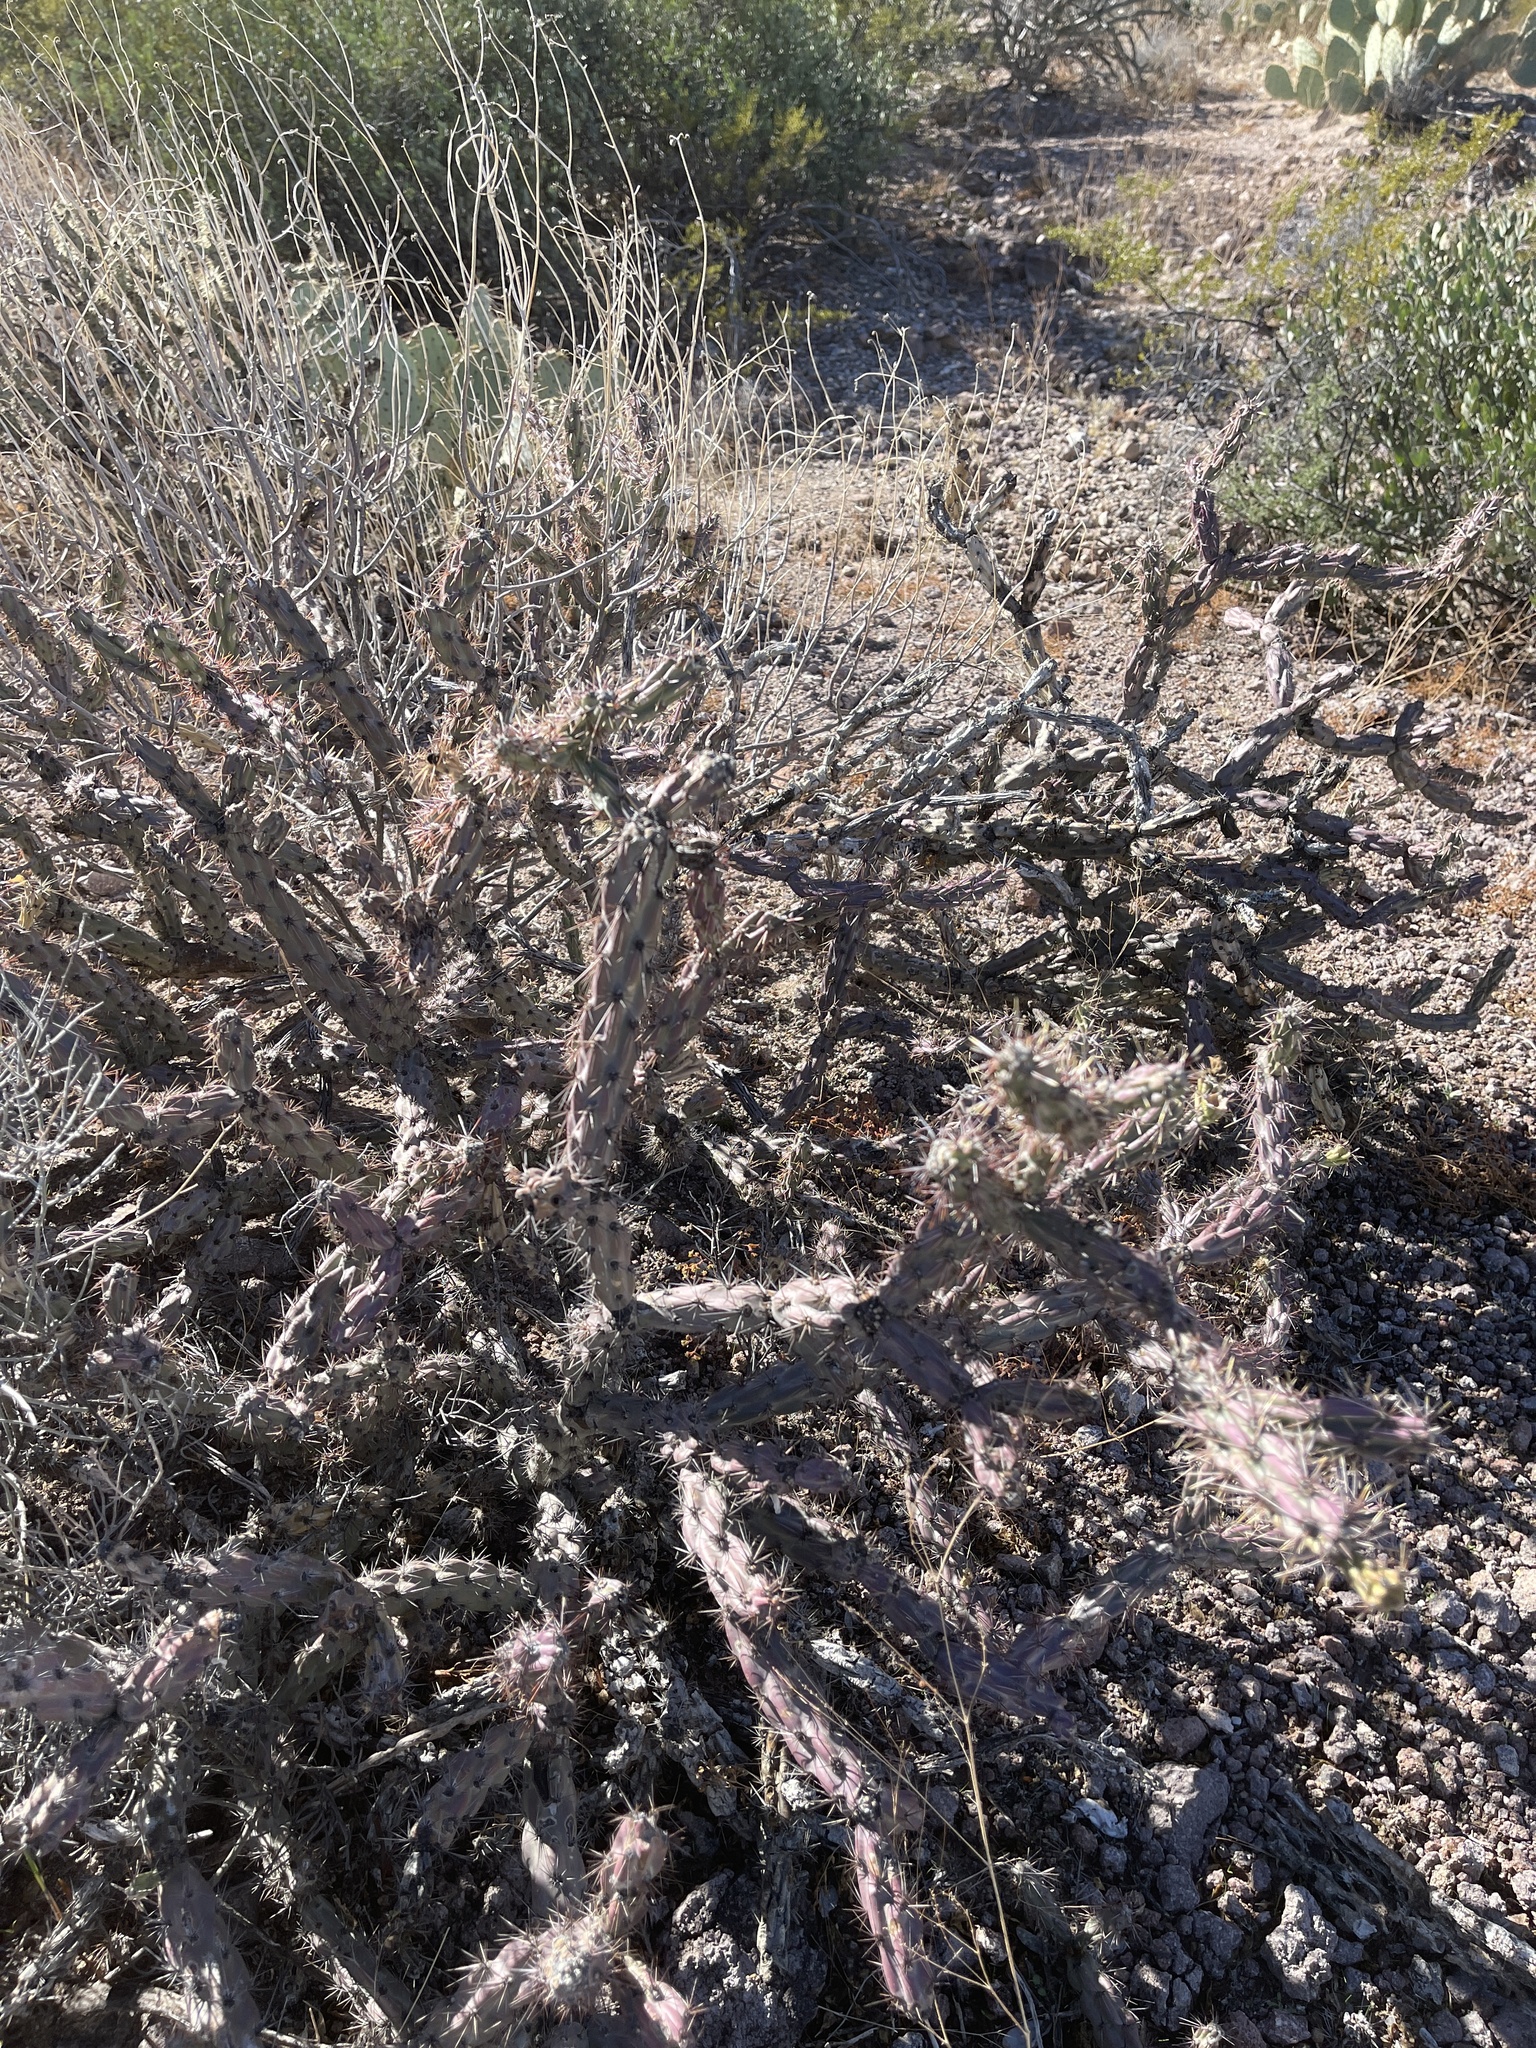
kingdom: Plantae
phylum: Tracheophyta
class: Magnoliopsida
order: Caryophyllales
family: Cactaceae
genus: Cylindropuntia
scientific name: Cylindropuntia thurberi
